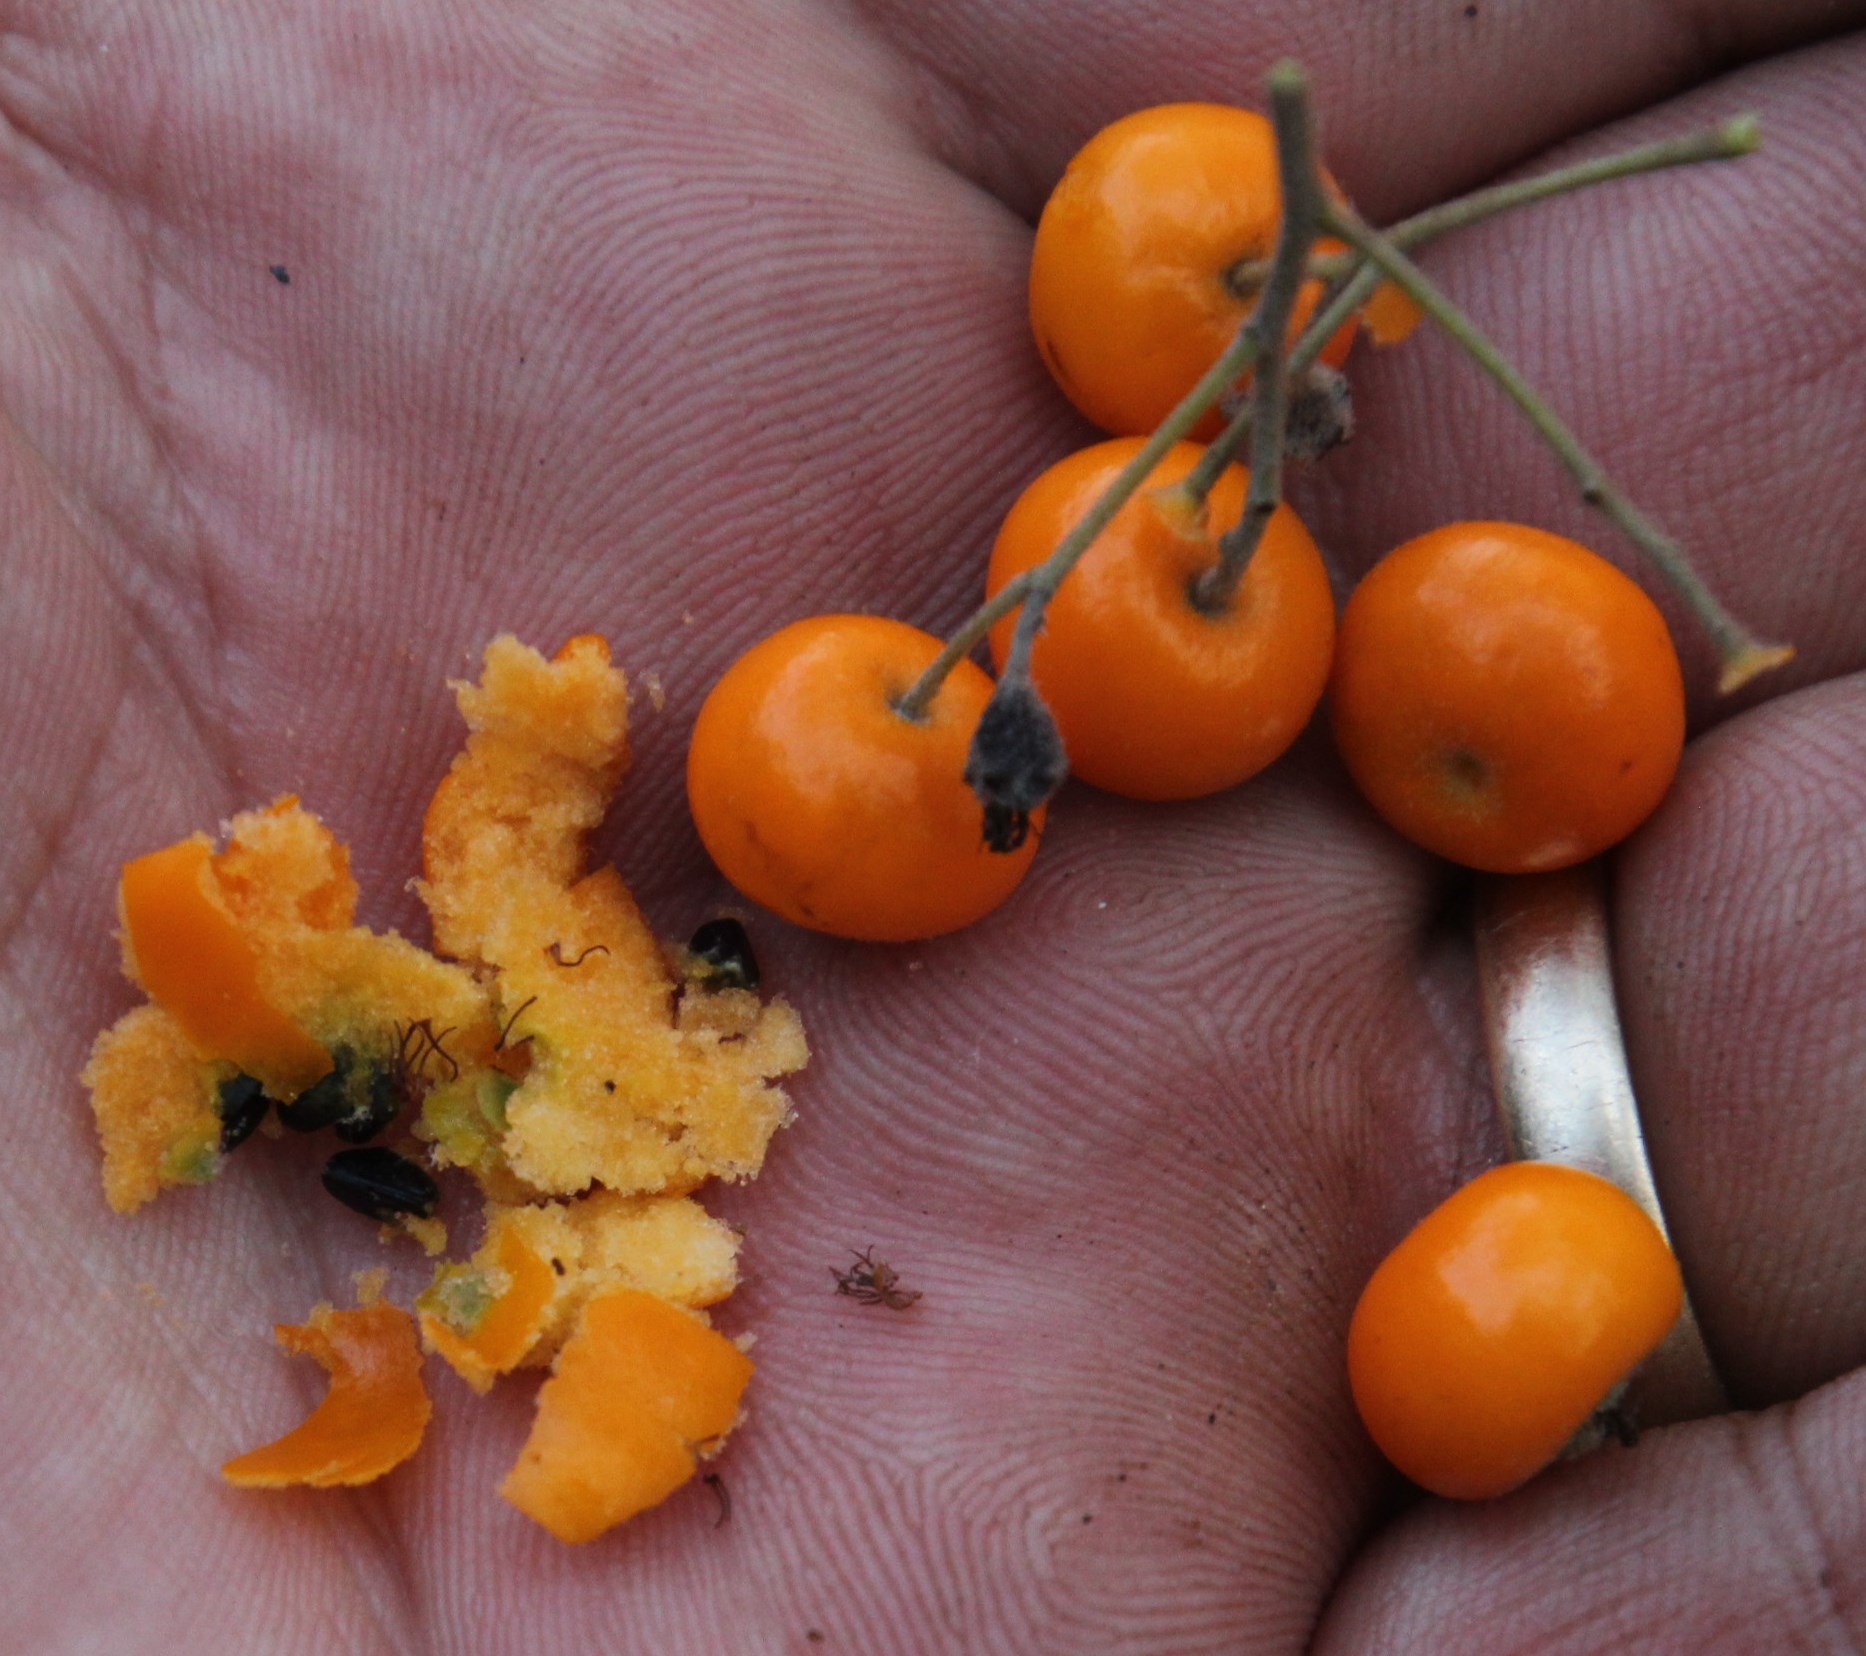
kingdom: Plantae
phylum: Tracheophyta
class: Magnoliopsida
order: Rosales
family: Rosaceae
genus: Pyracantha
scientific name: Pyracantha angustifolia
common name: Narrowleaf firethorn
